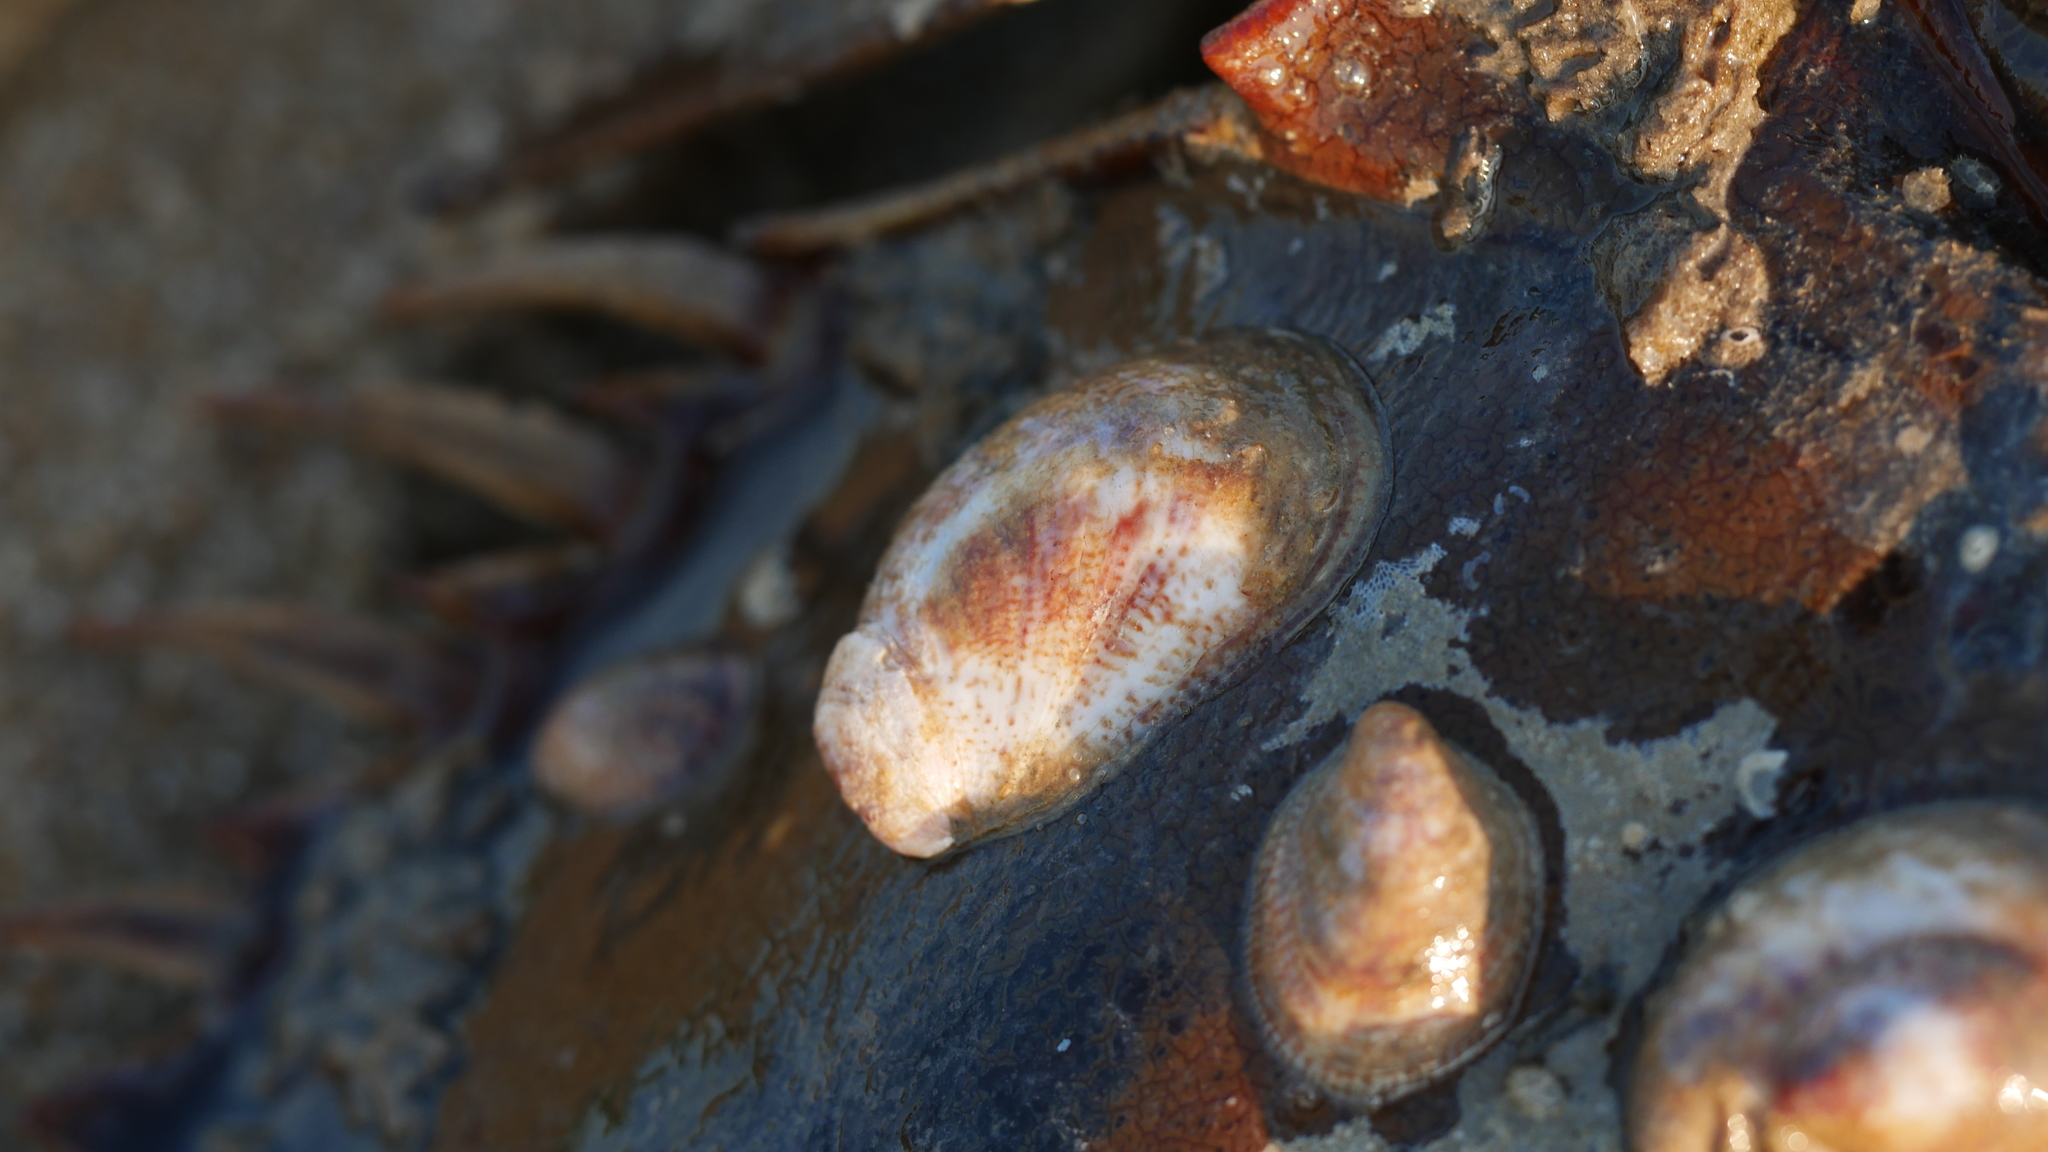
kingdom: Animalia
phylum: Mollusca
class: Gastropoda
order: Littorinimorpha
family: Calyptraeidae
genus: Crepidula
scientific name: Crepidula fornicata
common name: Slipper limpet
